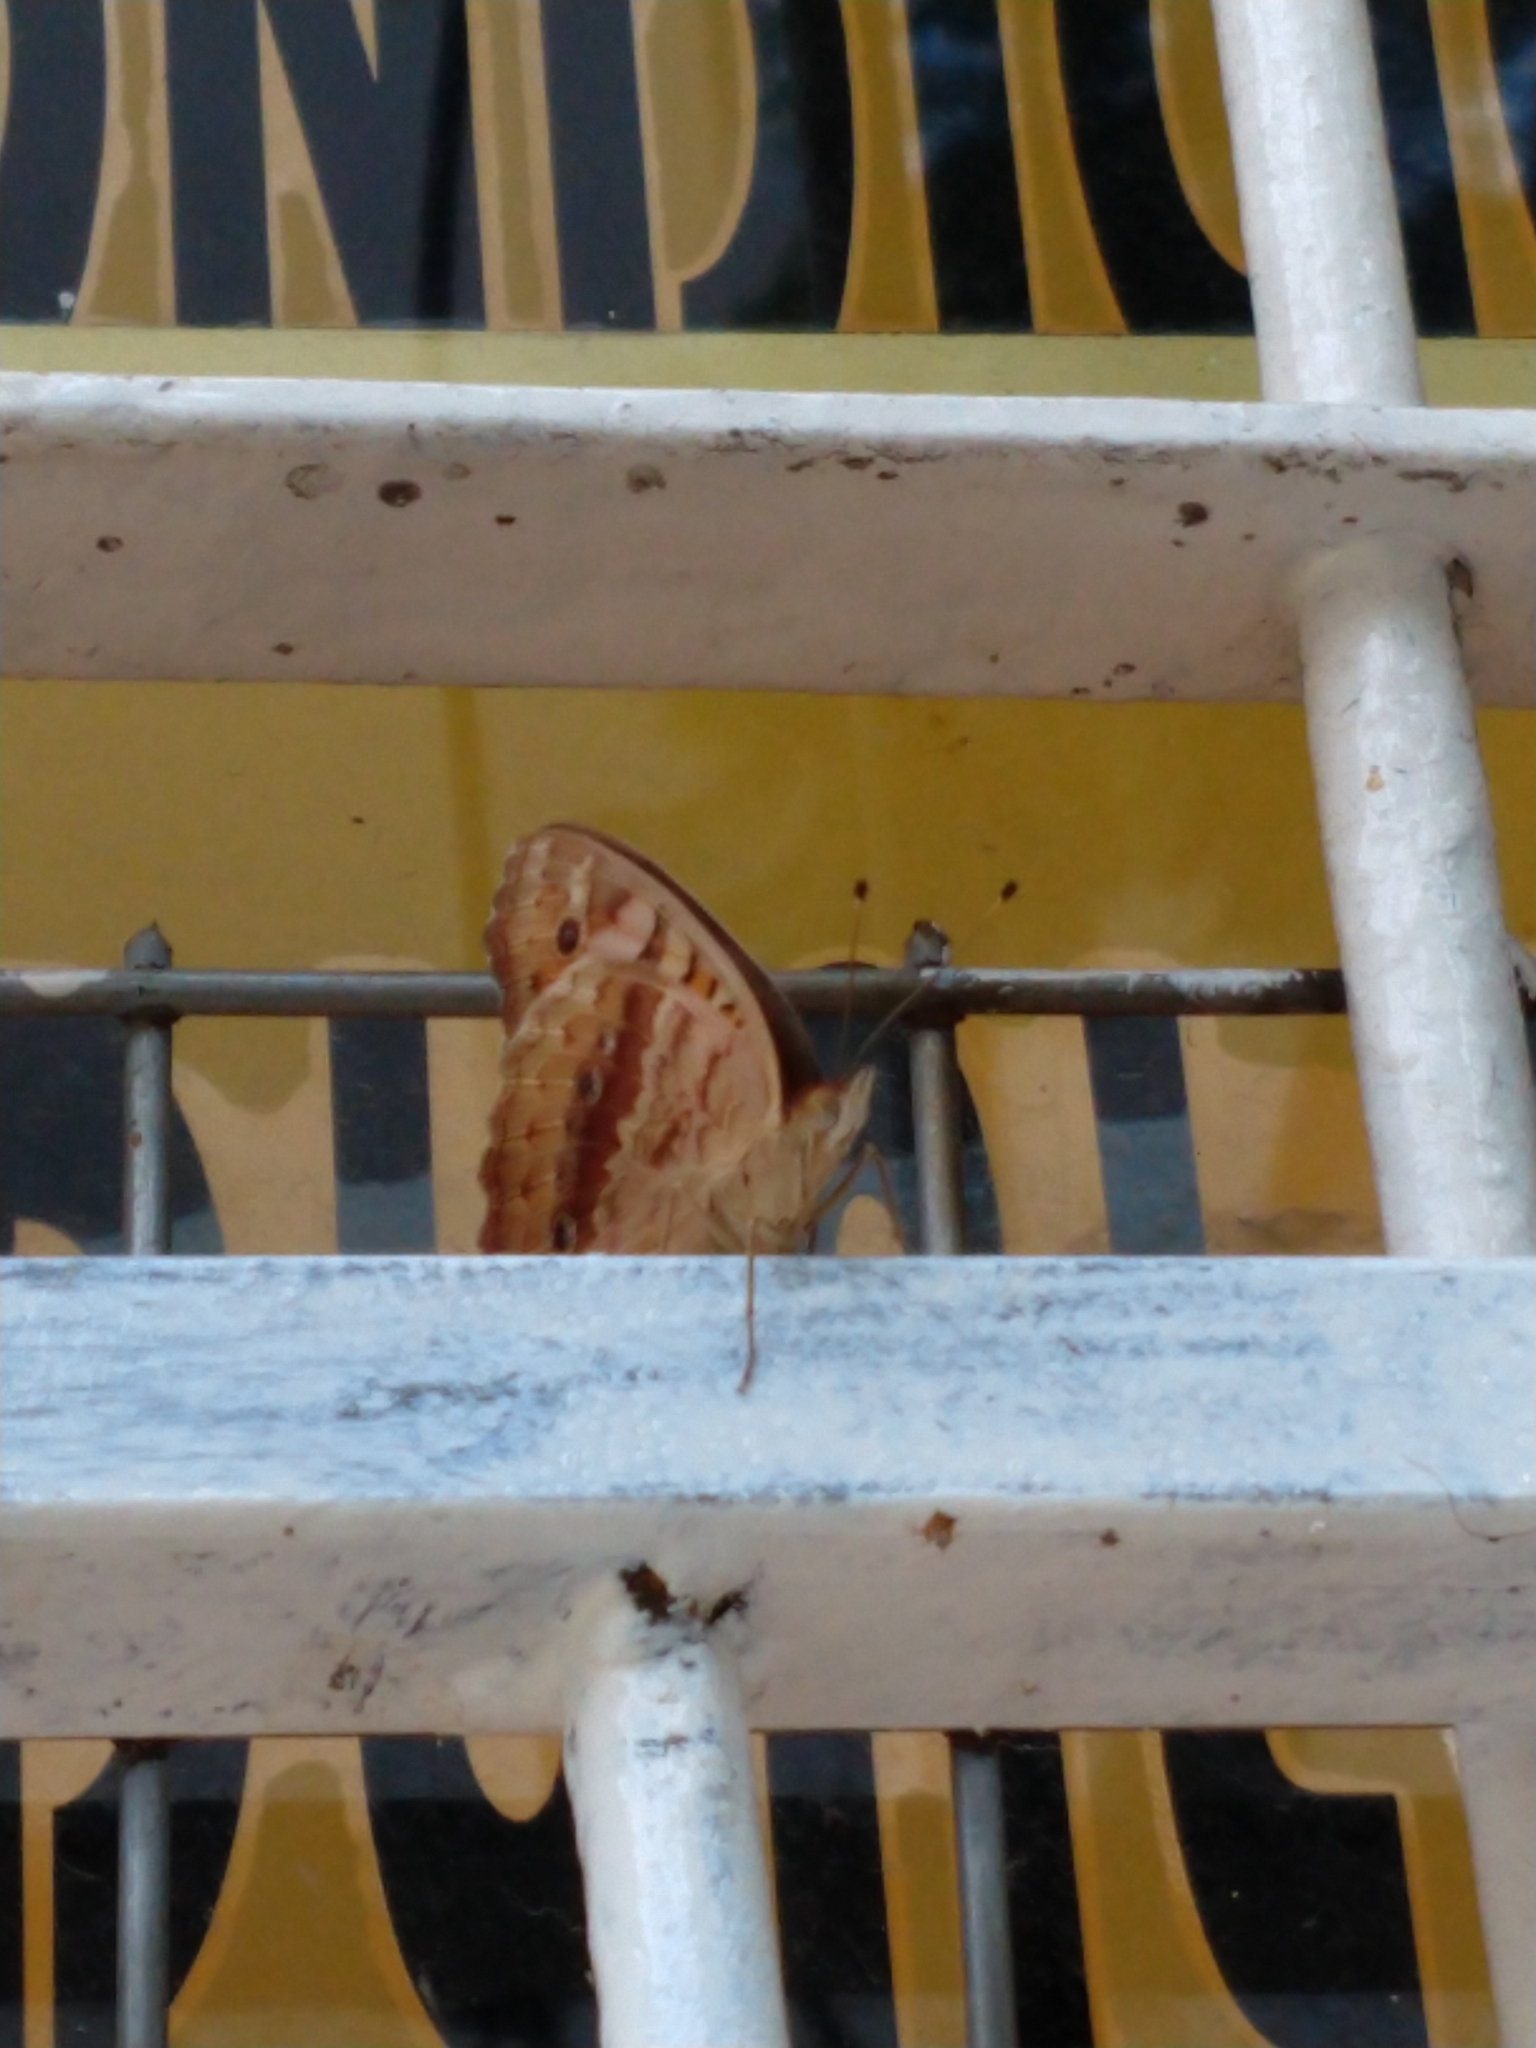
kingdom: Animalia
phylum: Arthropoda
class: Insecta
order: Lepidoptera
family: Nymphalidae
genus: Junonia
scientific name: Junonia lavinia
